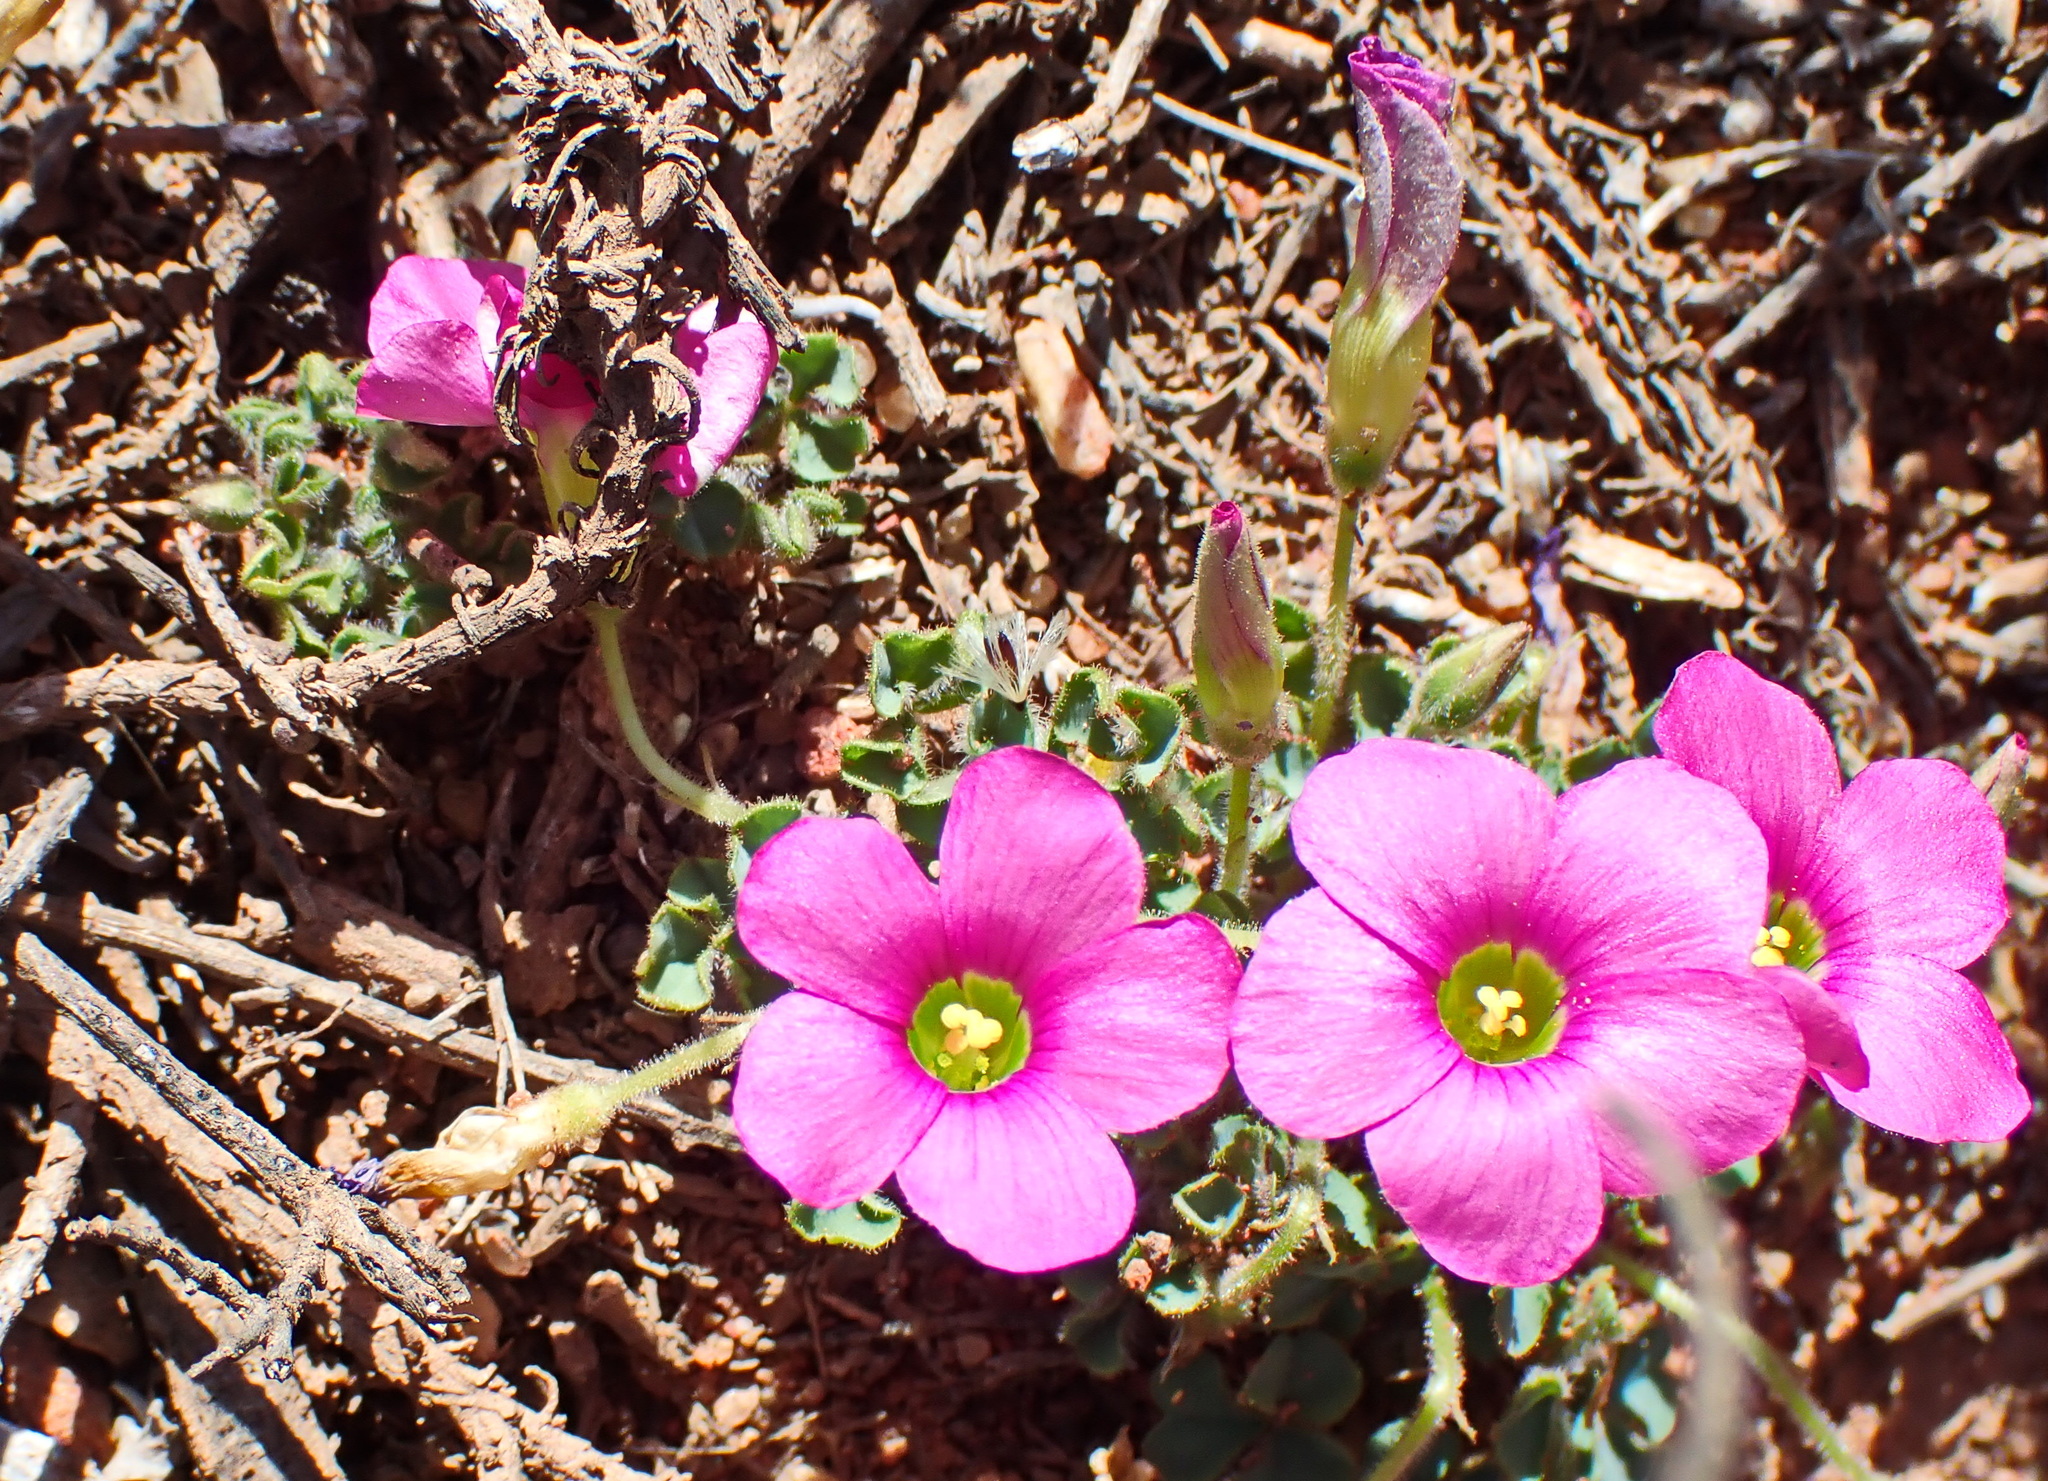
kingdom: Plantae
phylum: Tracheophyta
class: Magnoliopsida
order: Oxalidales
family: Oxalidaceae
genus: Oxalis
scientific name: Oxalis imbricata
